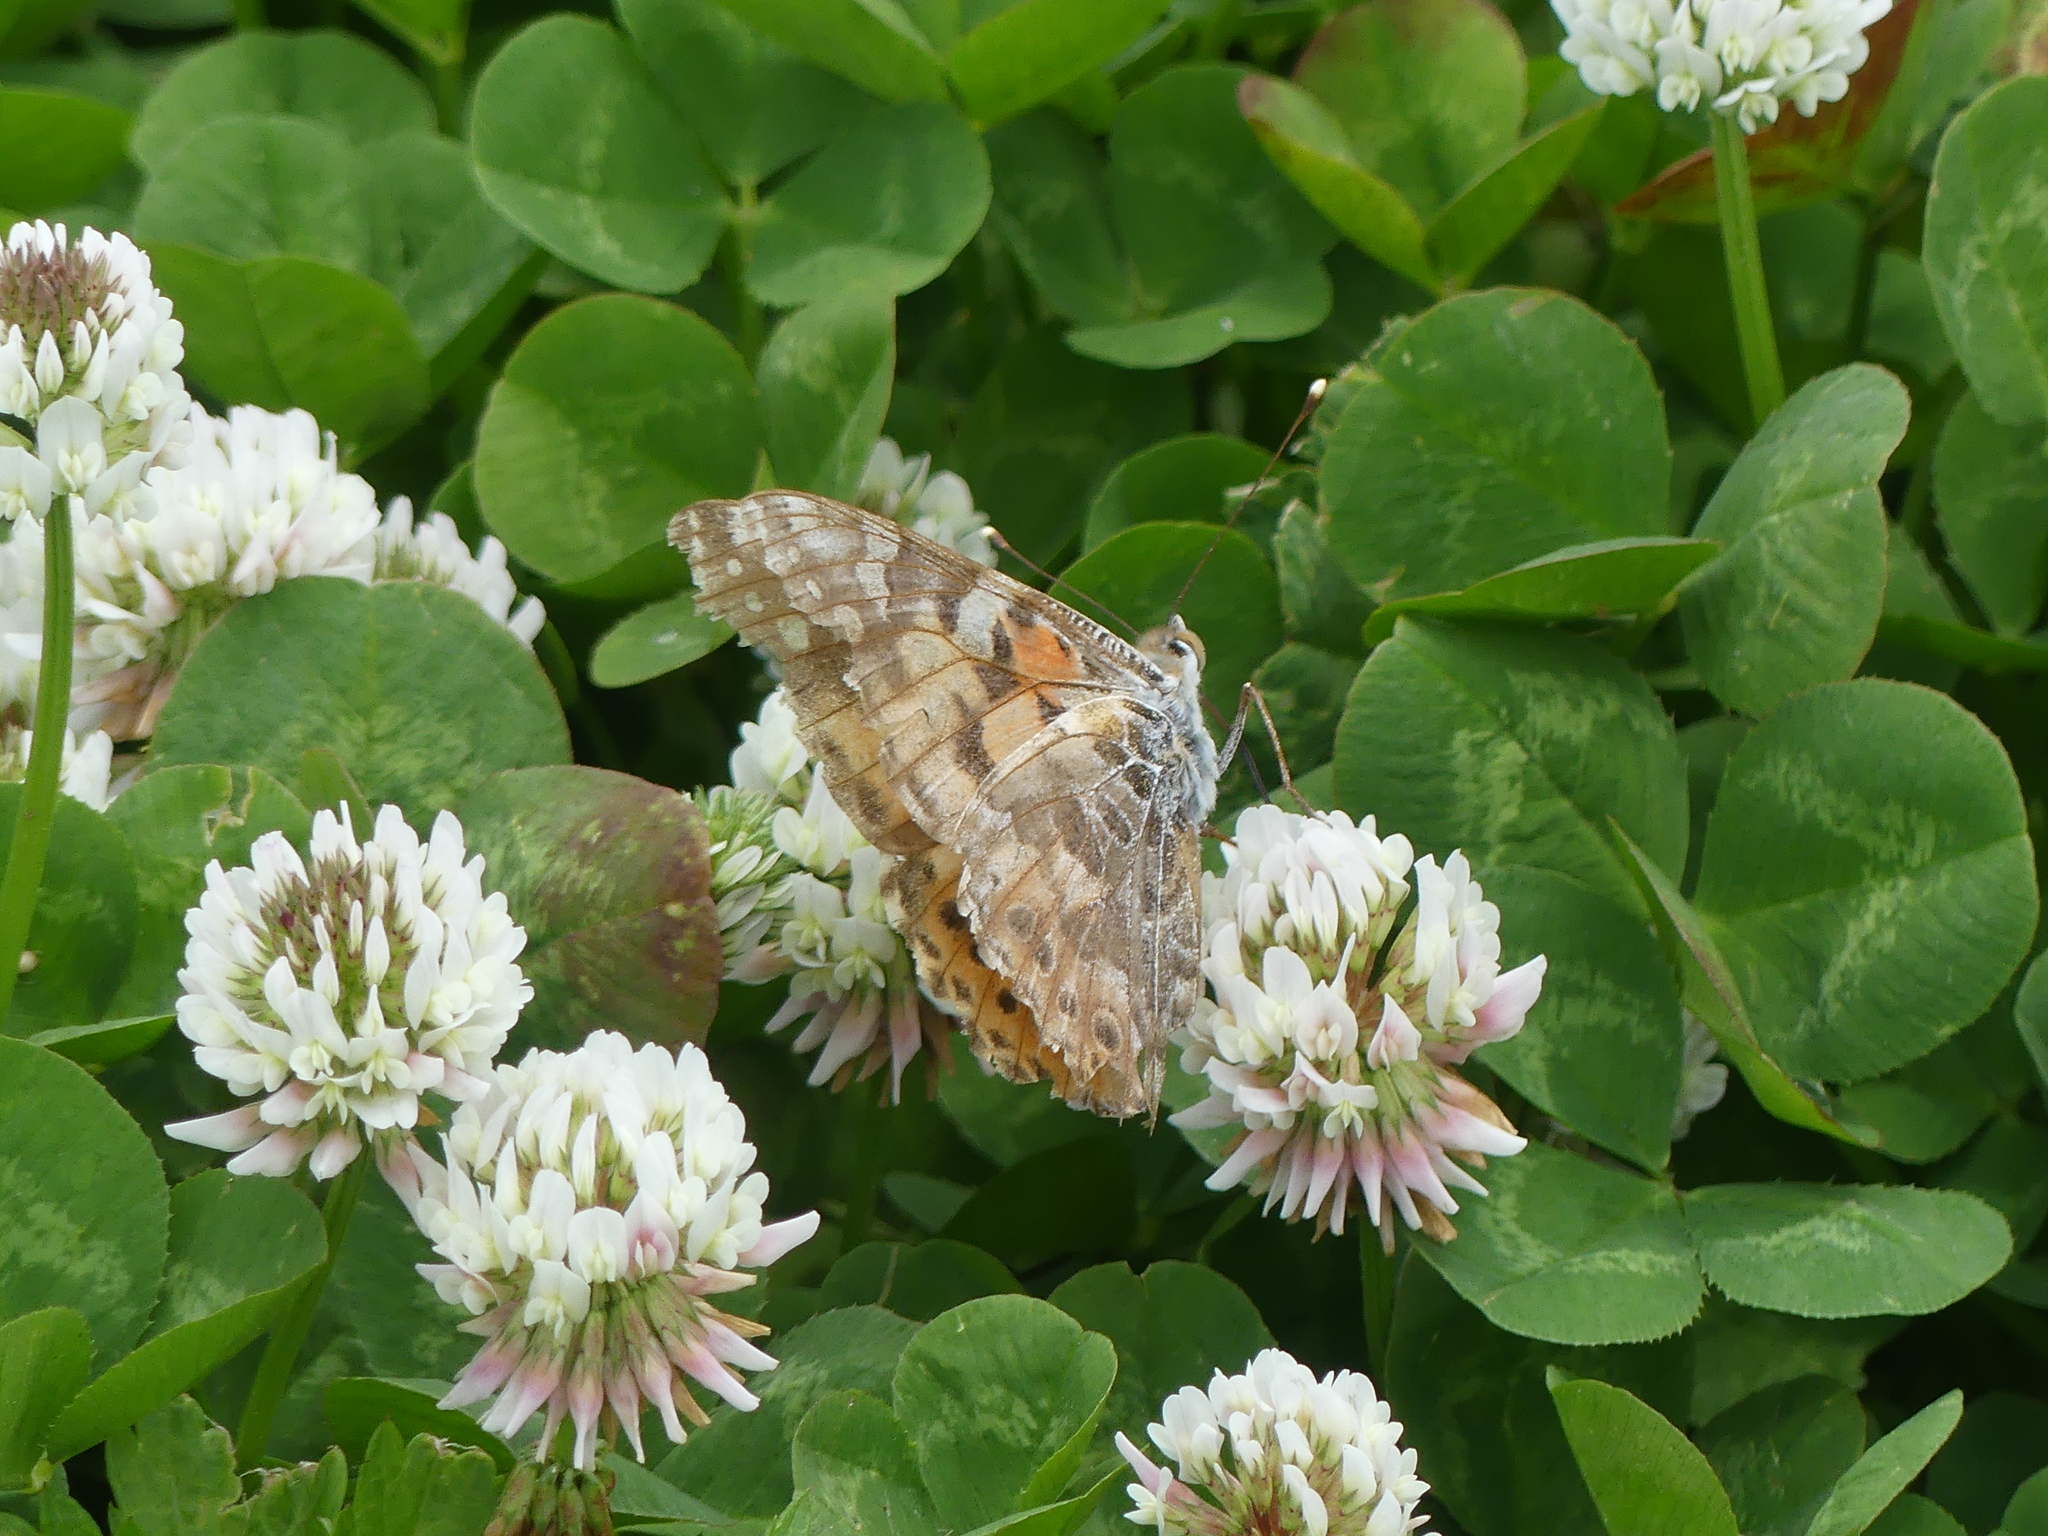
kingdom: Animalia
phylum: Arthropoda
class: Insecta
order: Lepidoptera
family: Nymphalidae
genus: Vanessa
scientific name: Vanessa cardui
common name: Painted lady
